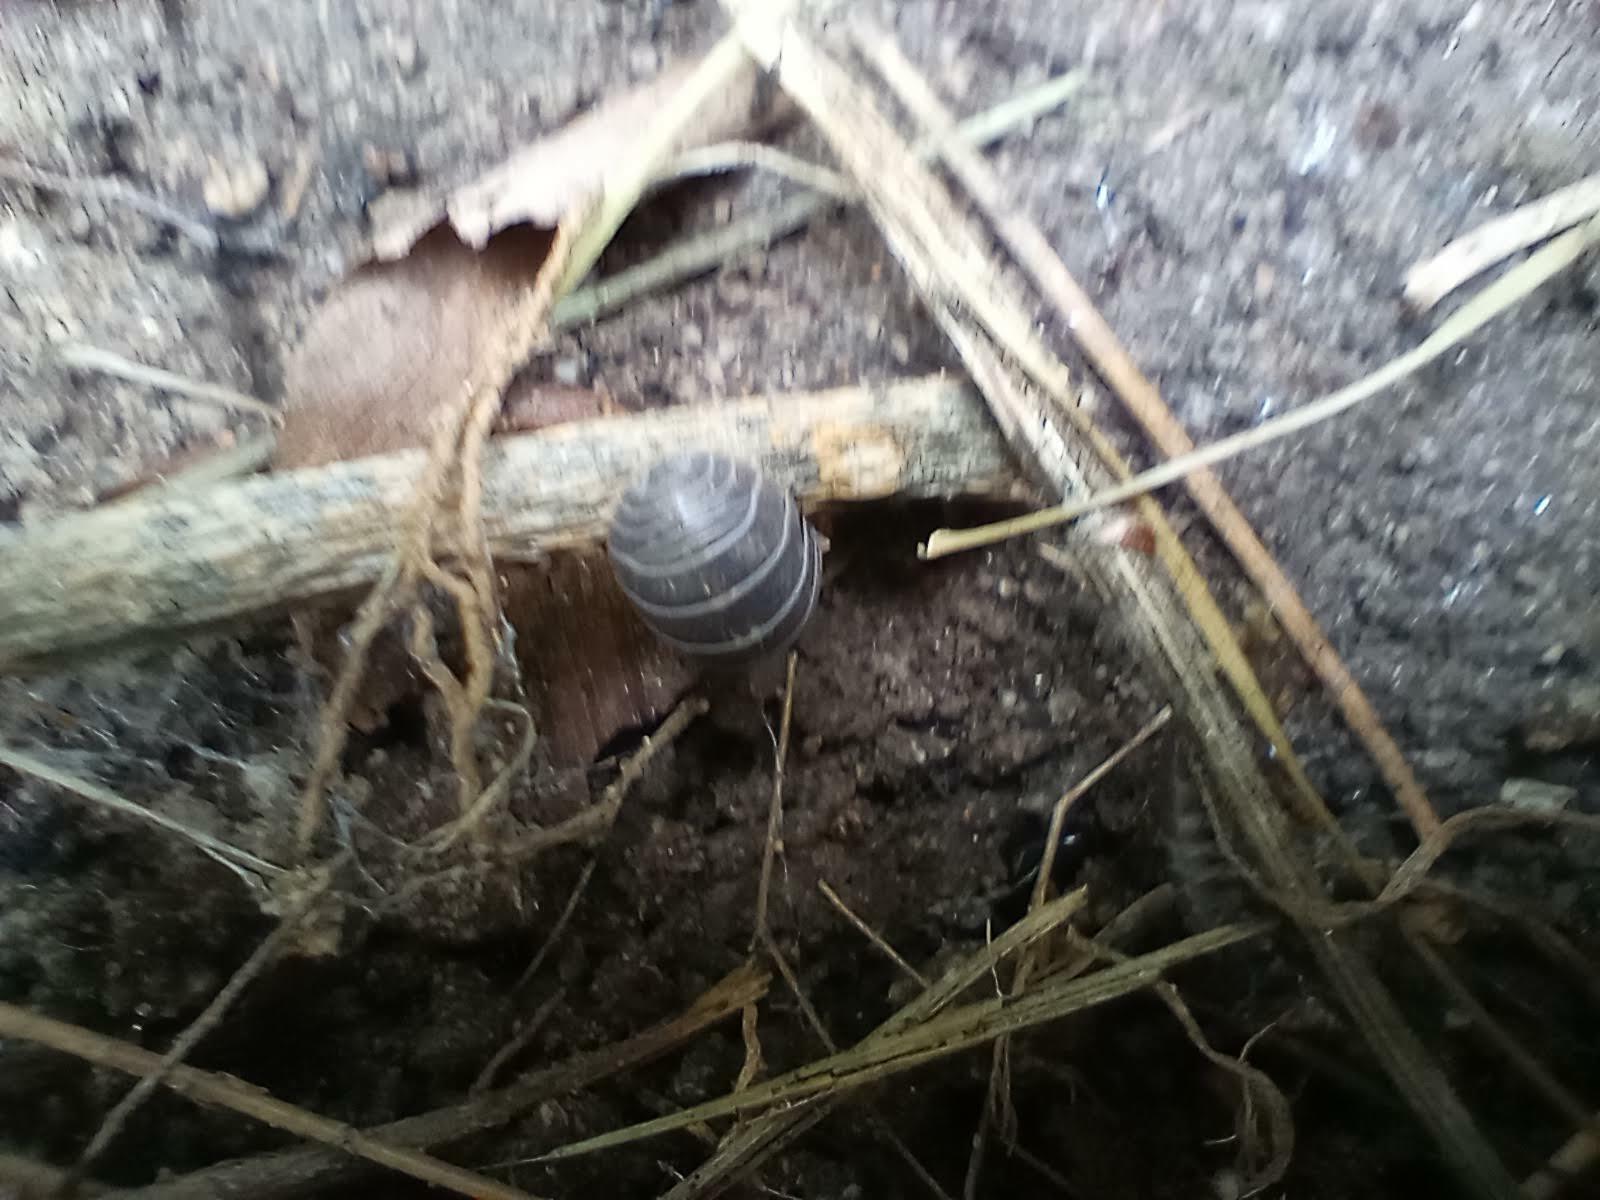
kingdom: Animalia
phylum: Arthropoda
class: Malacostraca
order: Isopoda
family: Armadillidiidae
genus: Armadillidium
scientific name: Armadillidium vulgare
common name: Common pill woodlouse
